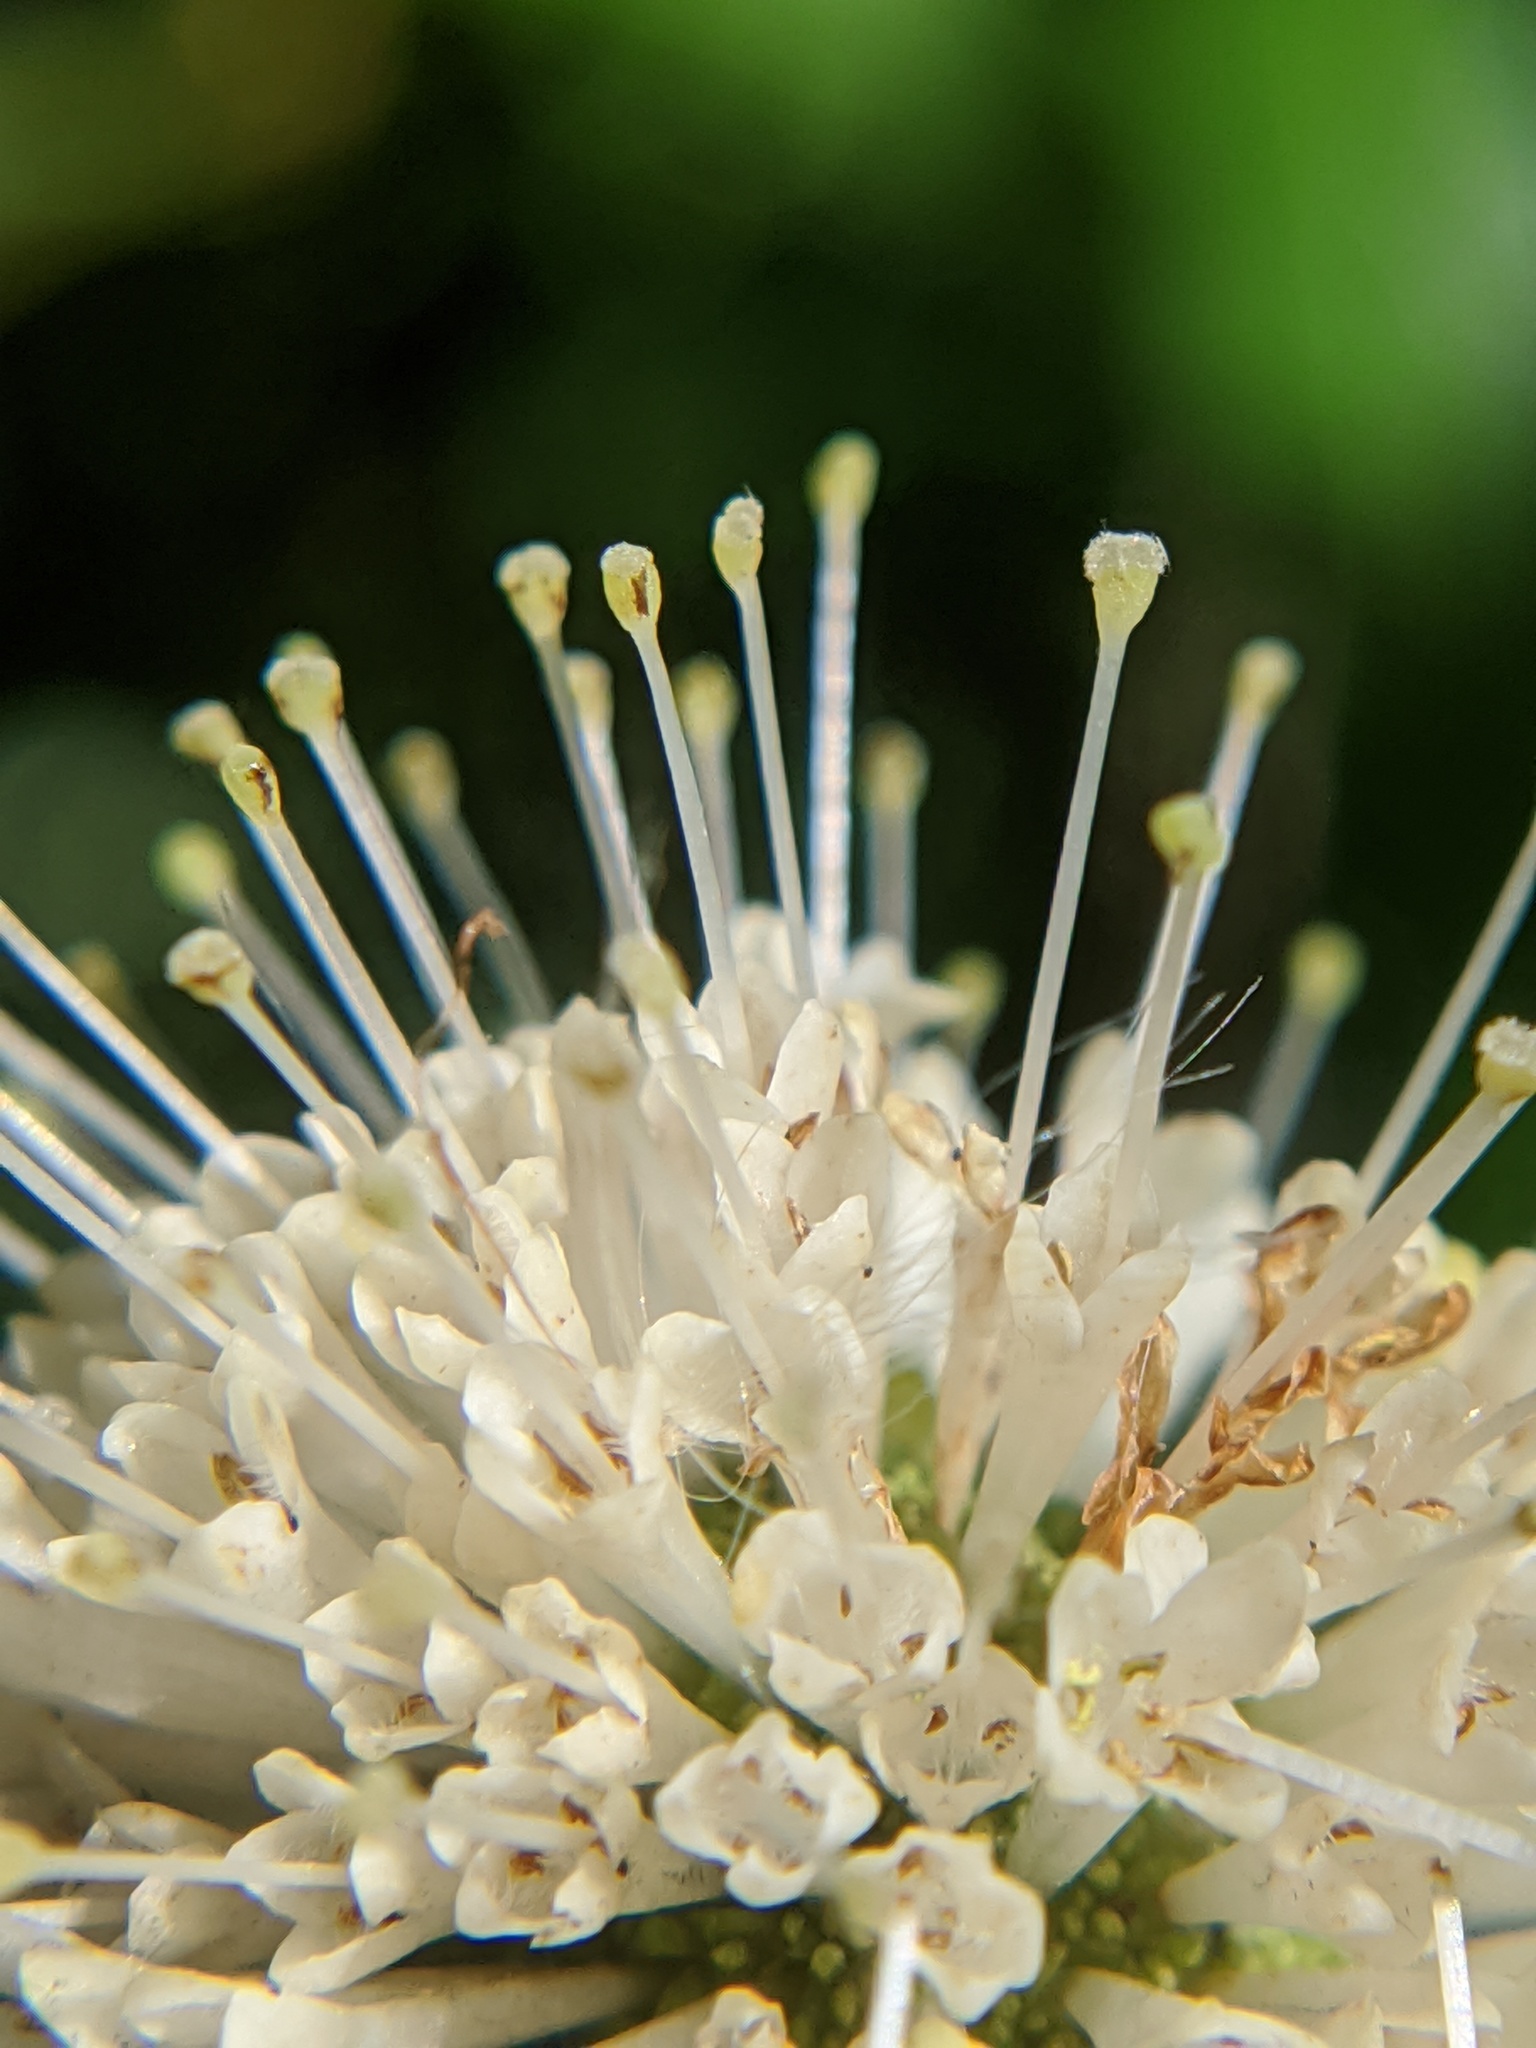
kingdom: Plantae
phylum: Tracheophyta
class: Magnoliopsida
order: Gentianales
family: Rubiaceae
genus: Cephalanthus
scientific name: Cephalanthus occidentalis
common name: Button-willow
